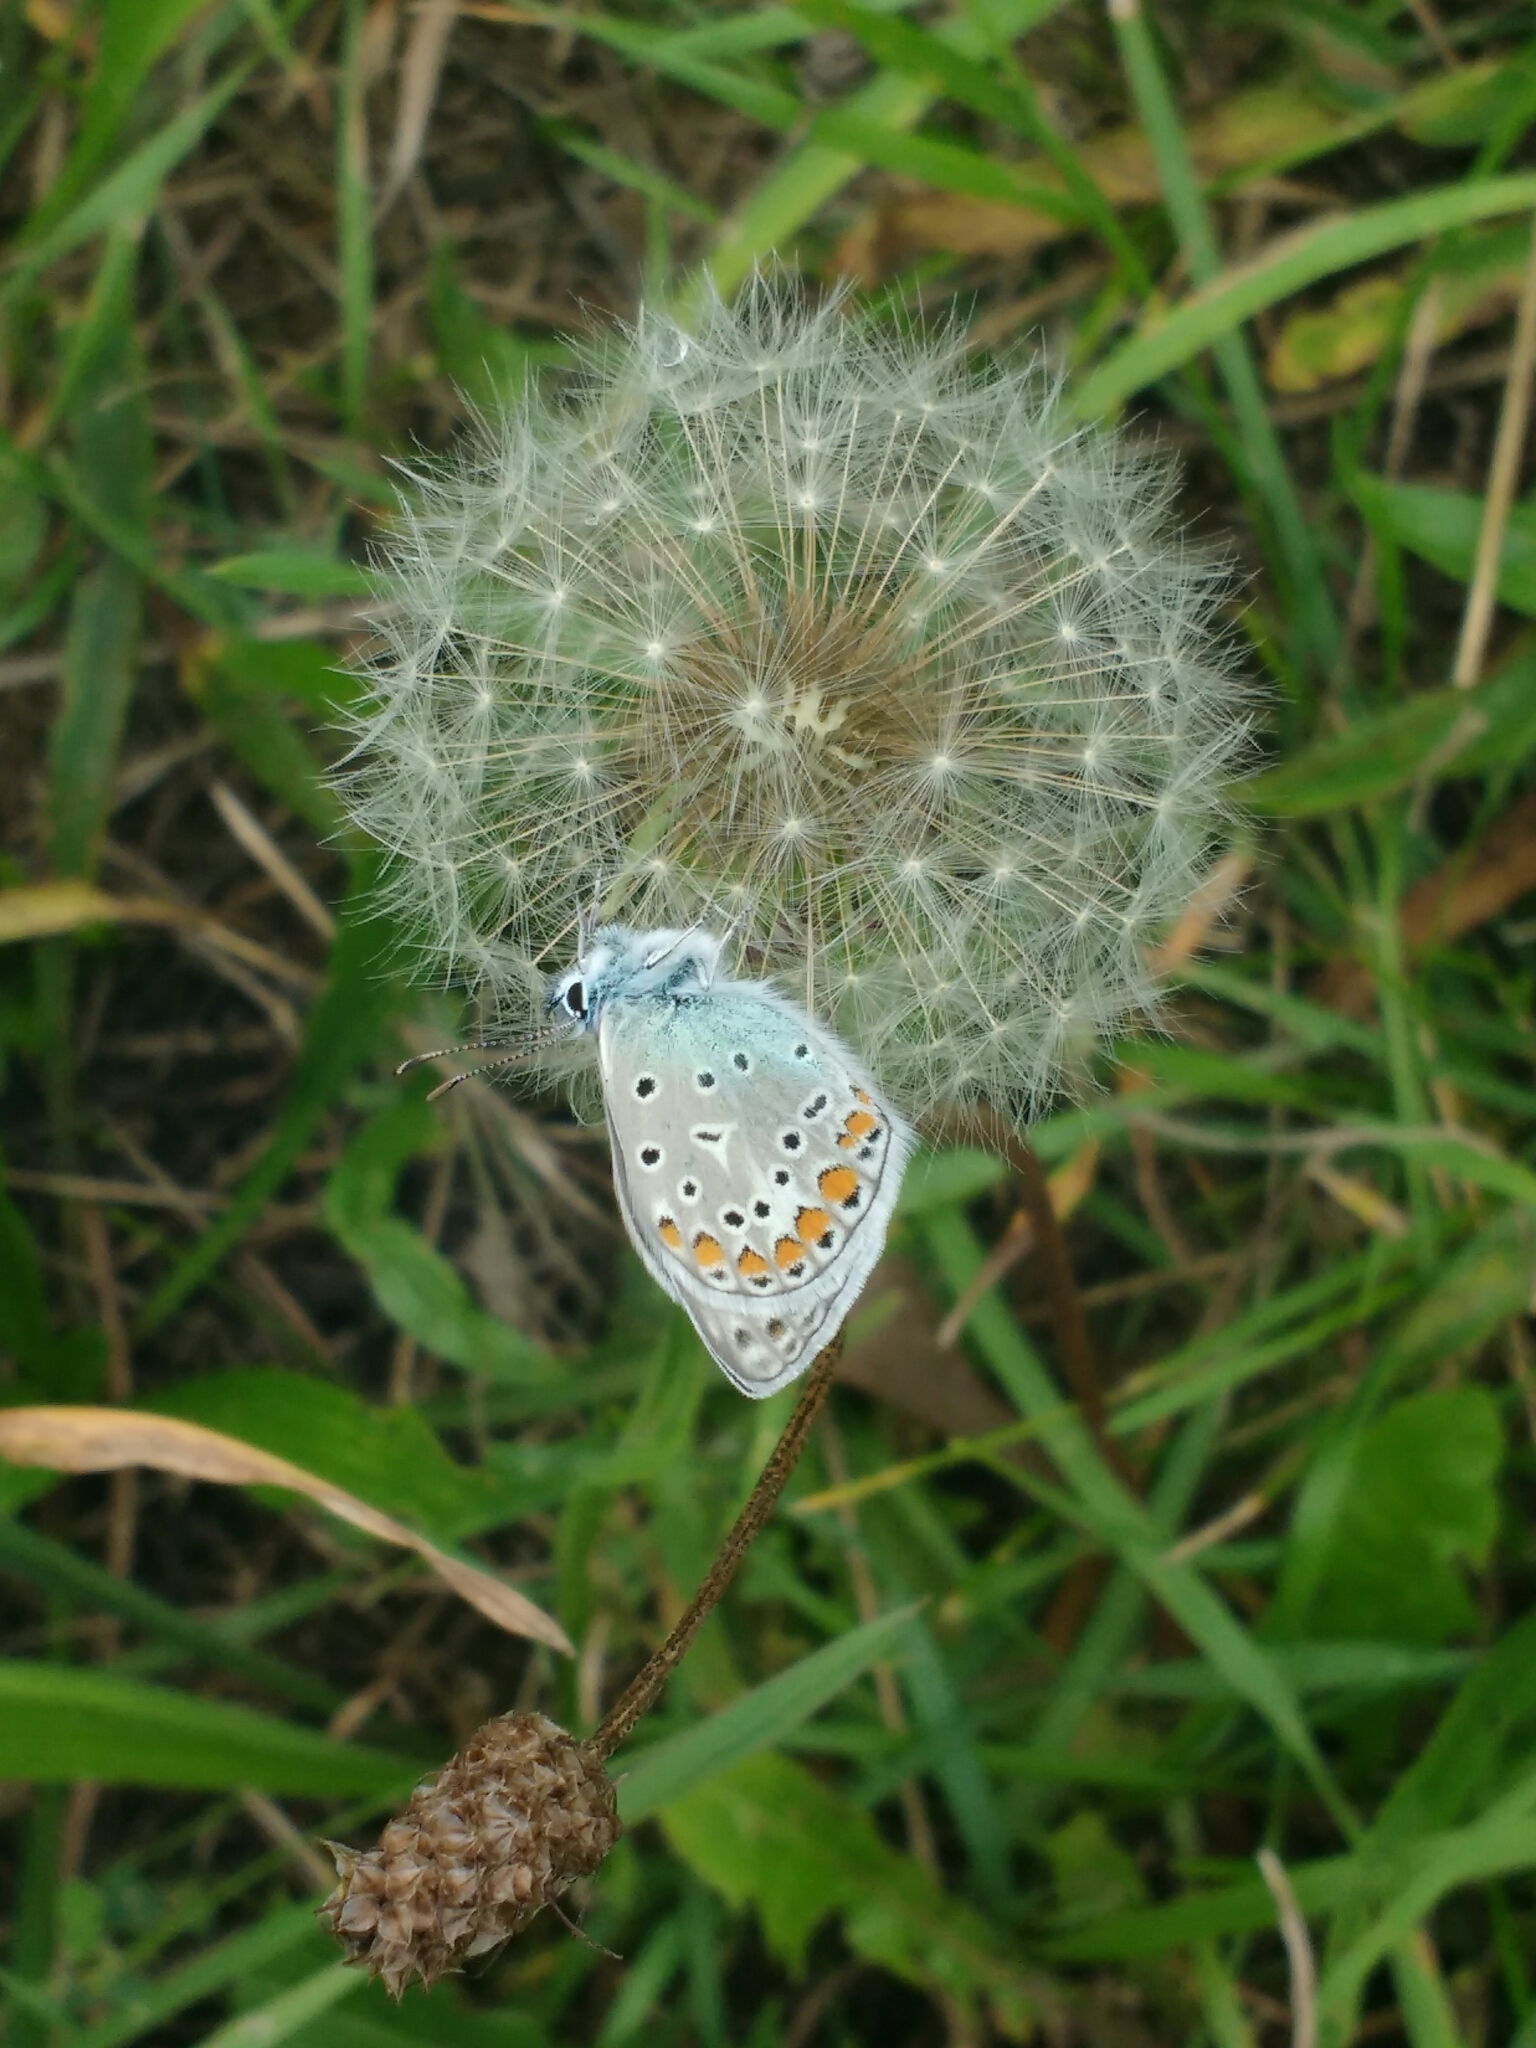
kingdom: Animalia
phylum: Arthropoda
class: Insecta
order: Lepidoptera
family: Lycaenidae
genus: Polyommatus
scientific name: Polyommatus icarus
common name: Common blue
